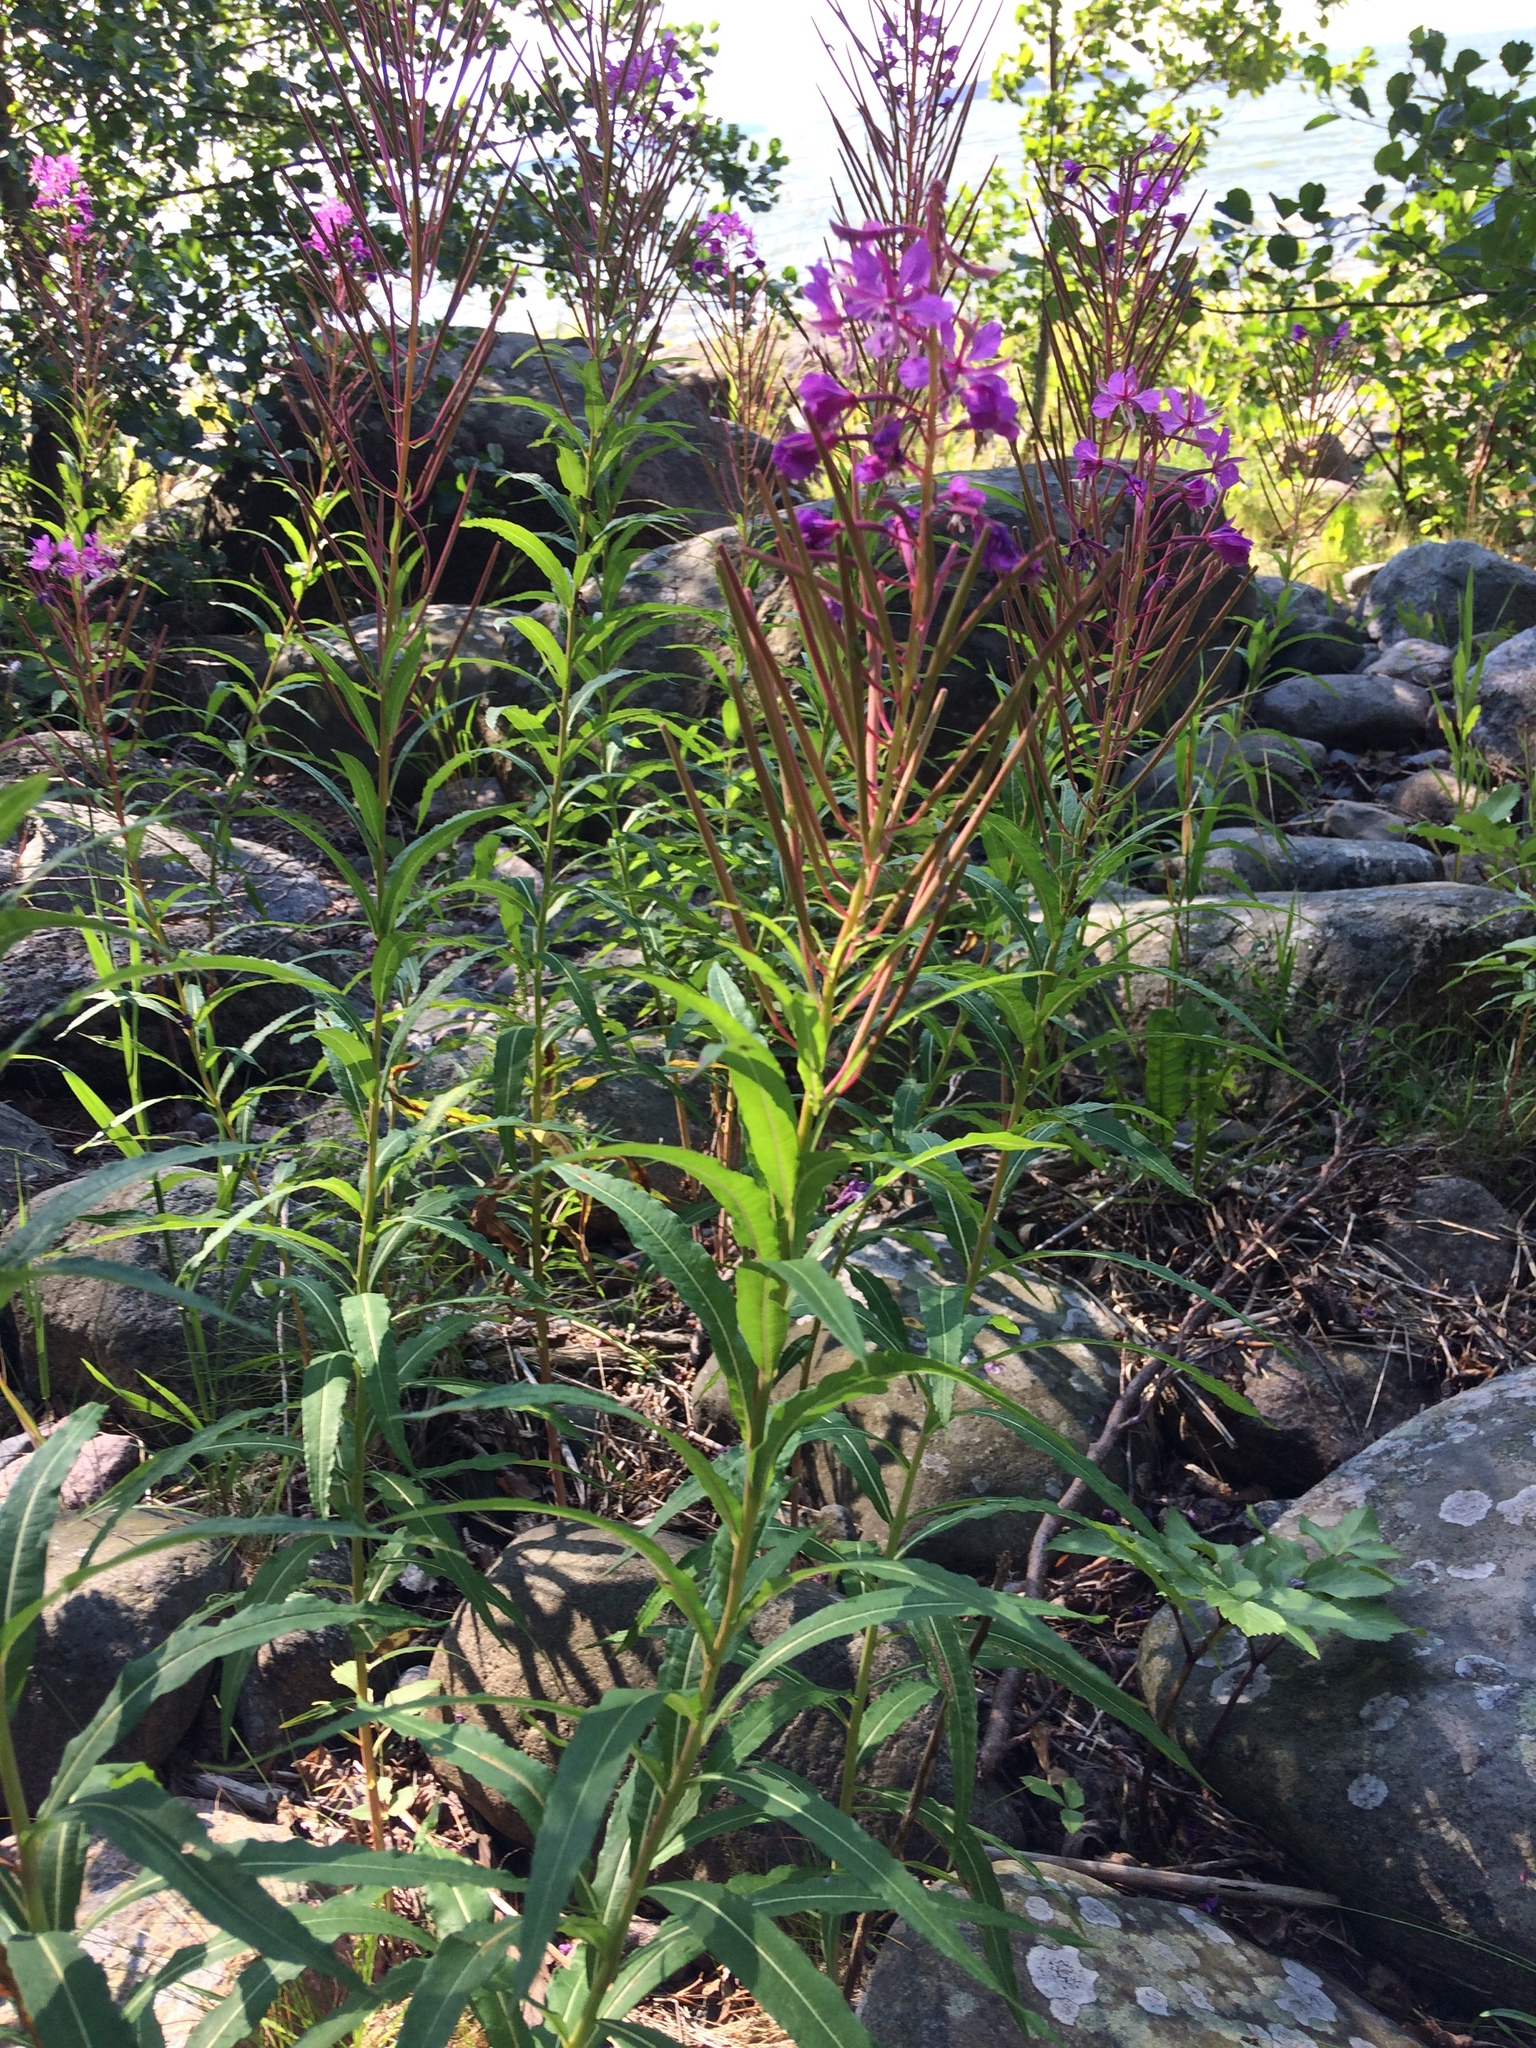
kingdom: Plantae
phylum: Tracheophyta
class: Magnoliopsida
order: Myrtales
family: Onagraceae
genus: Chamaenerion
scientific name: Chamaenerion angustifolium
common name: Fireweed
